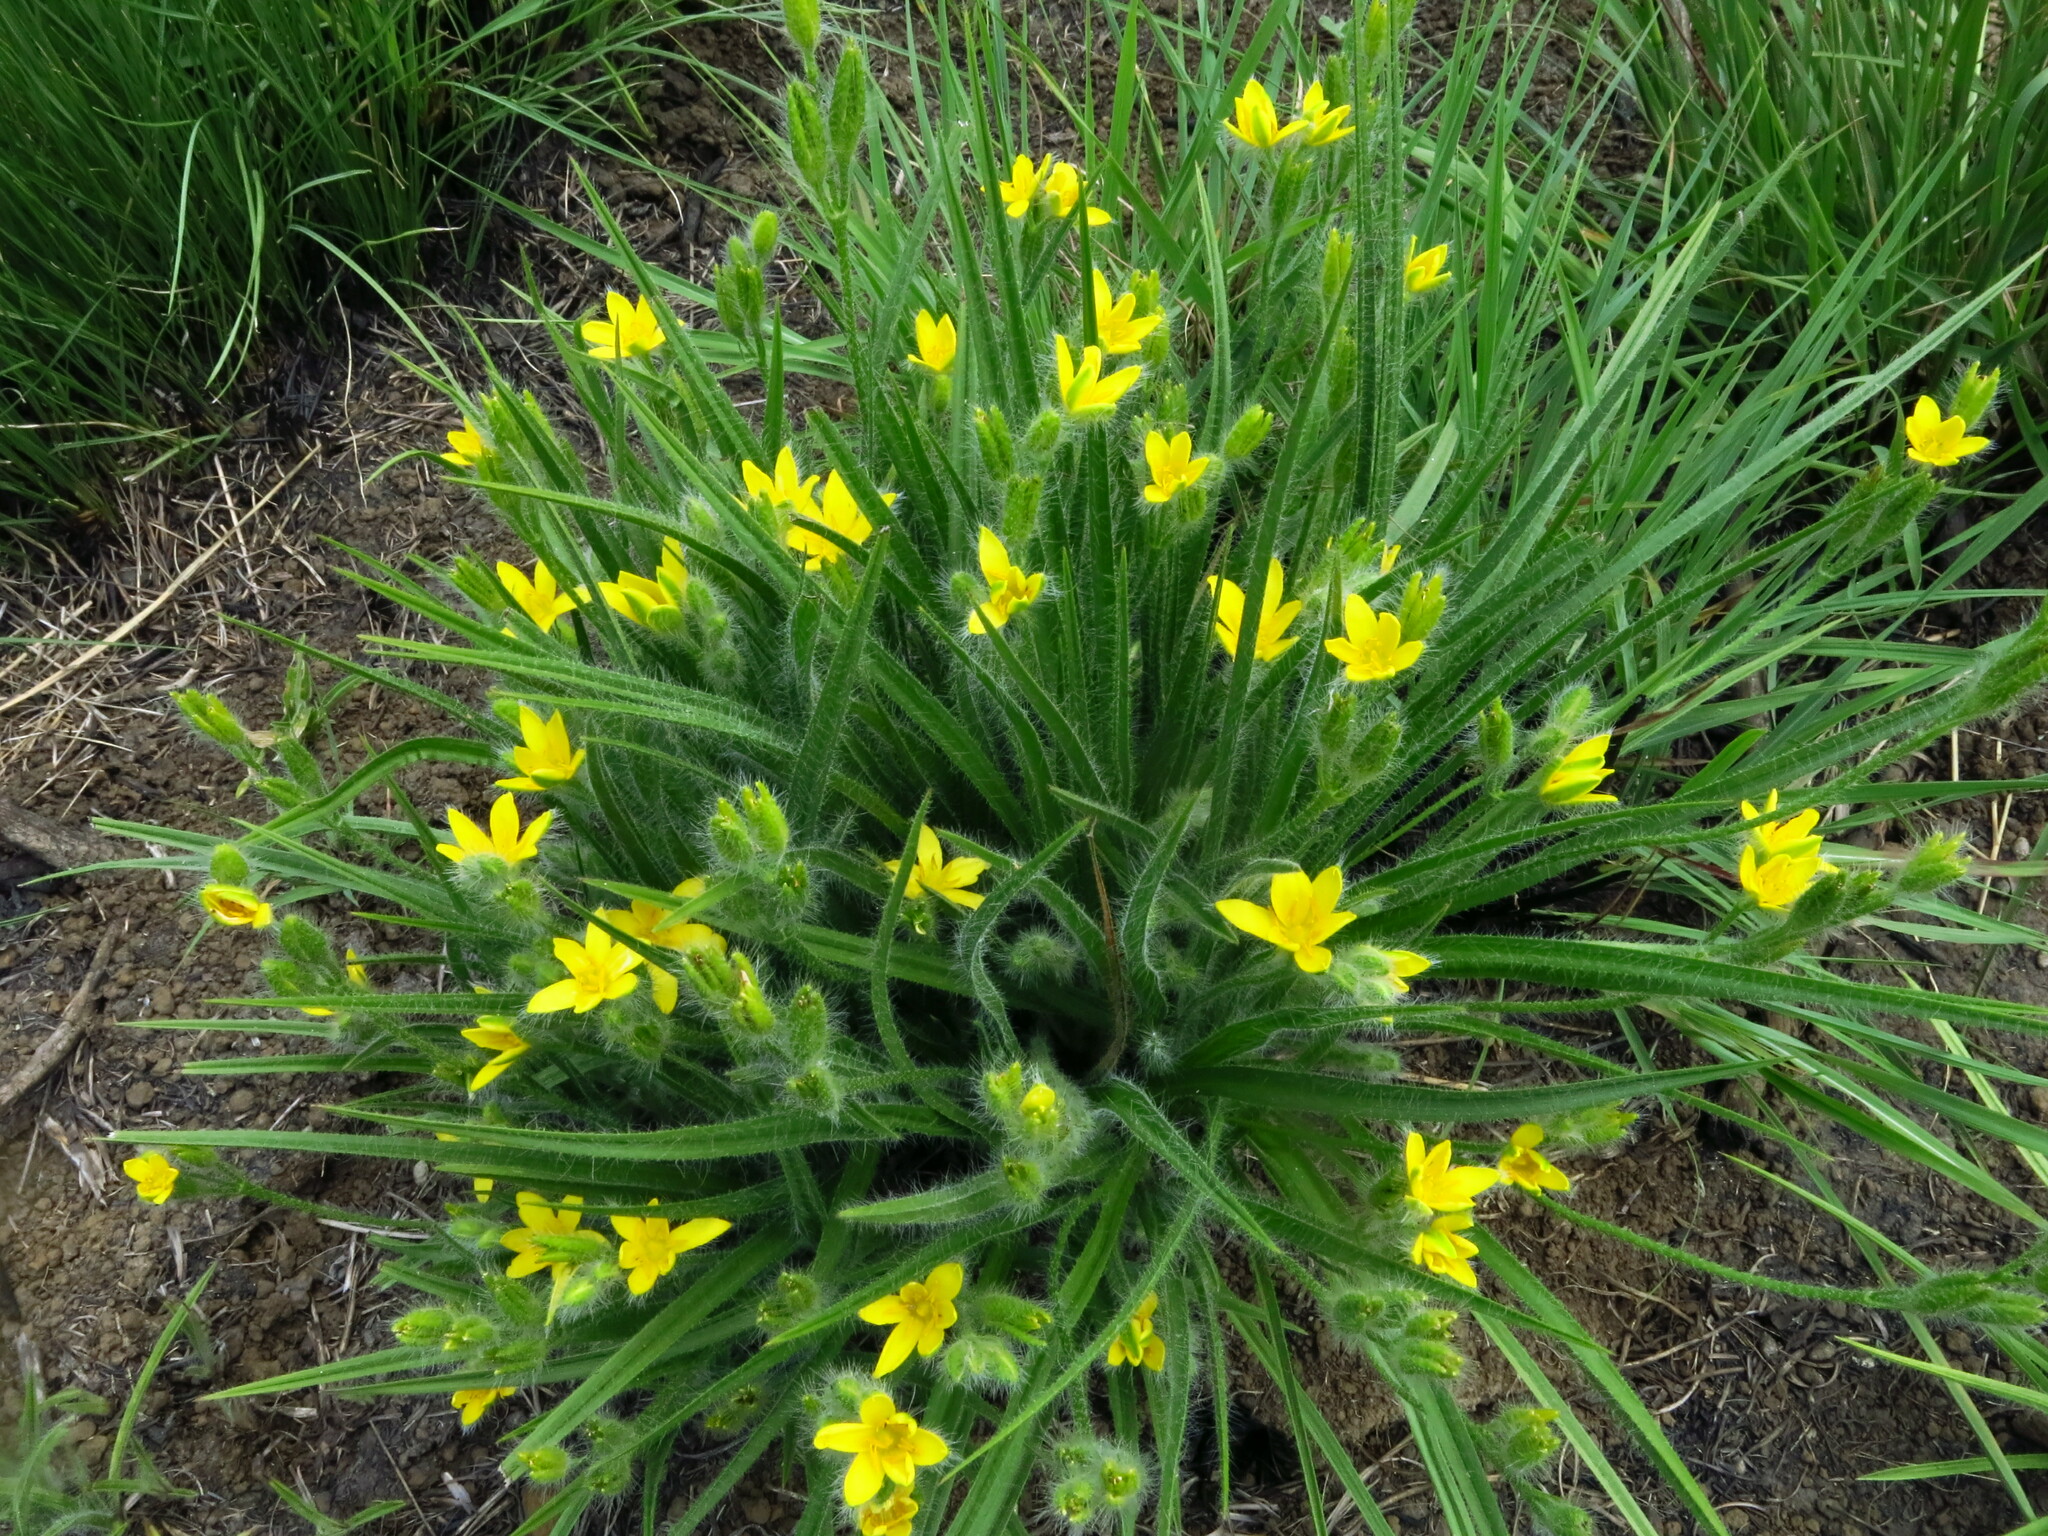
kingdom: Plantae
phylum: Tracheophyta
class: Liliopsida
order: Asparagales
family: Hypoxidaceae
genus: Hypoxis
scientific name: Hypoxis ludwigii
